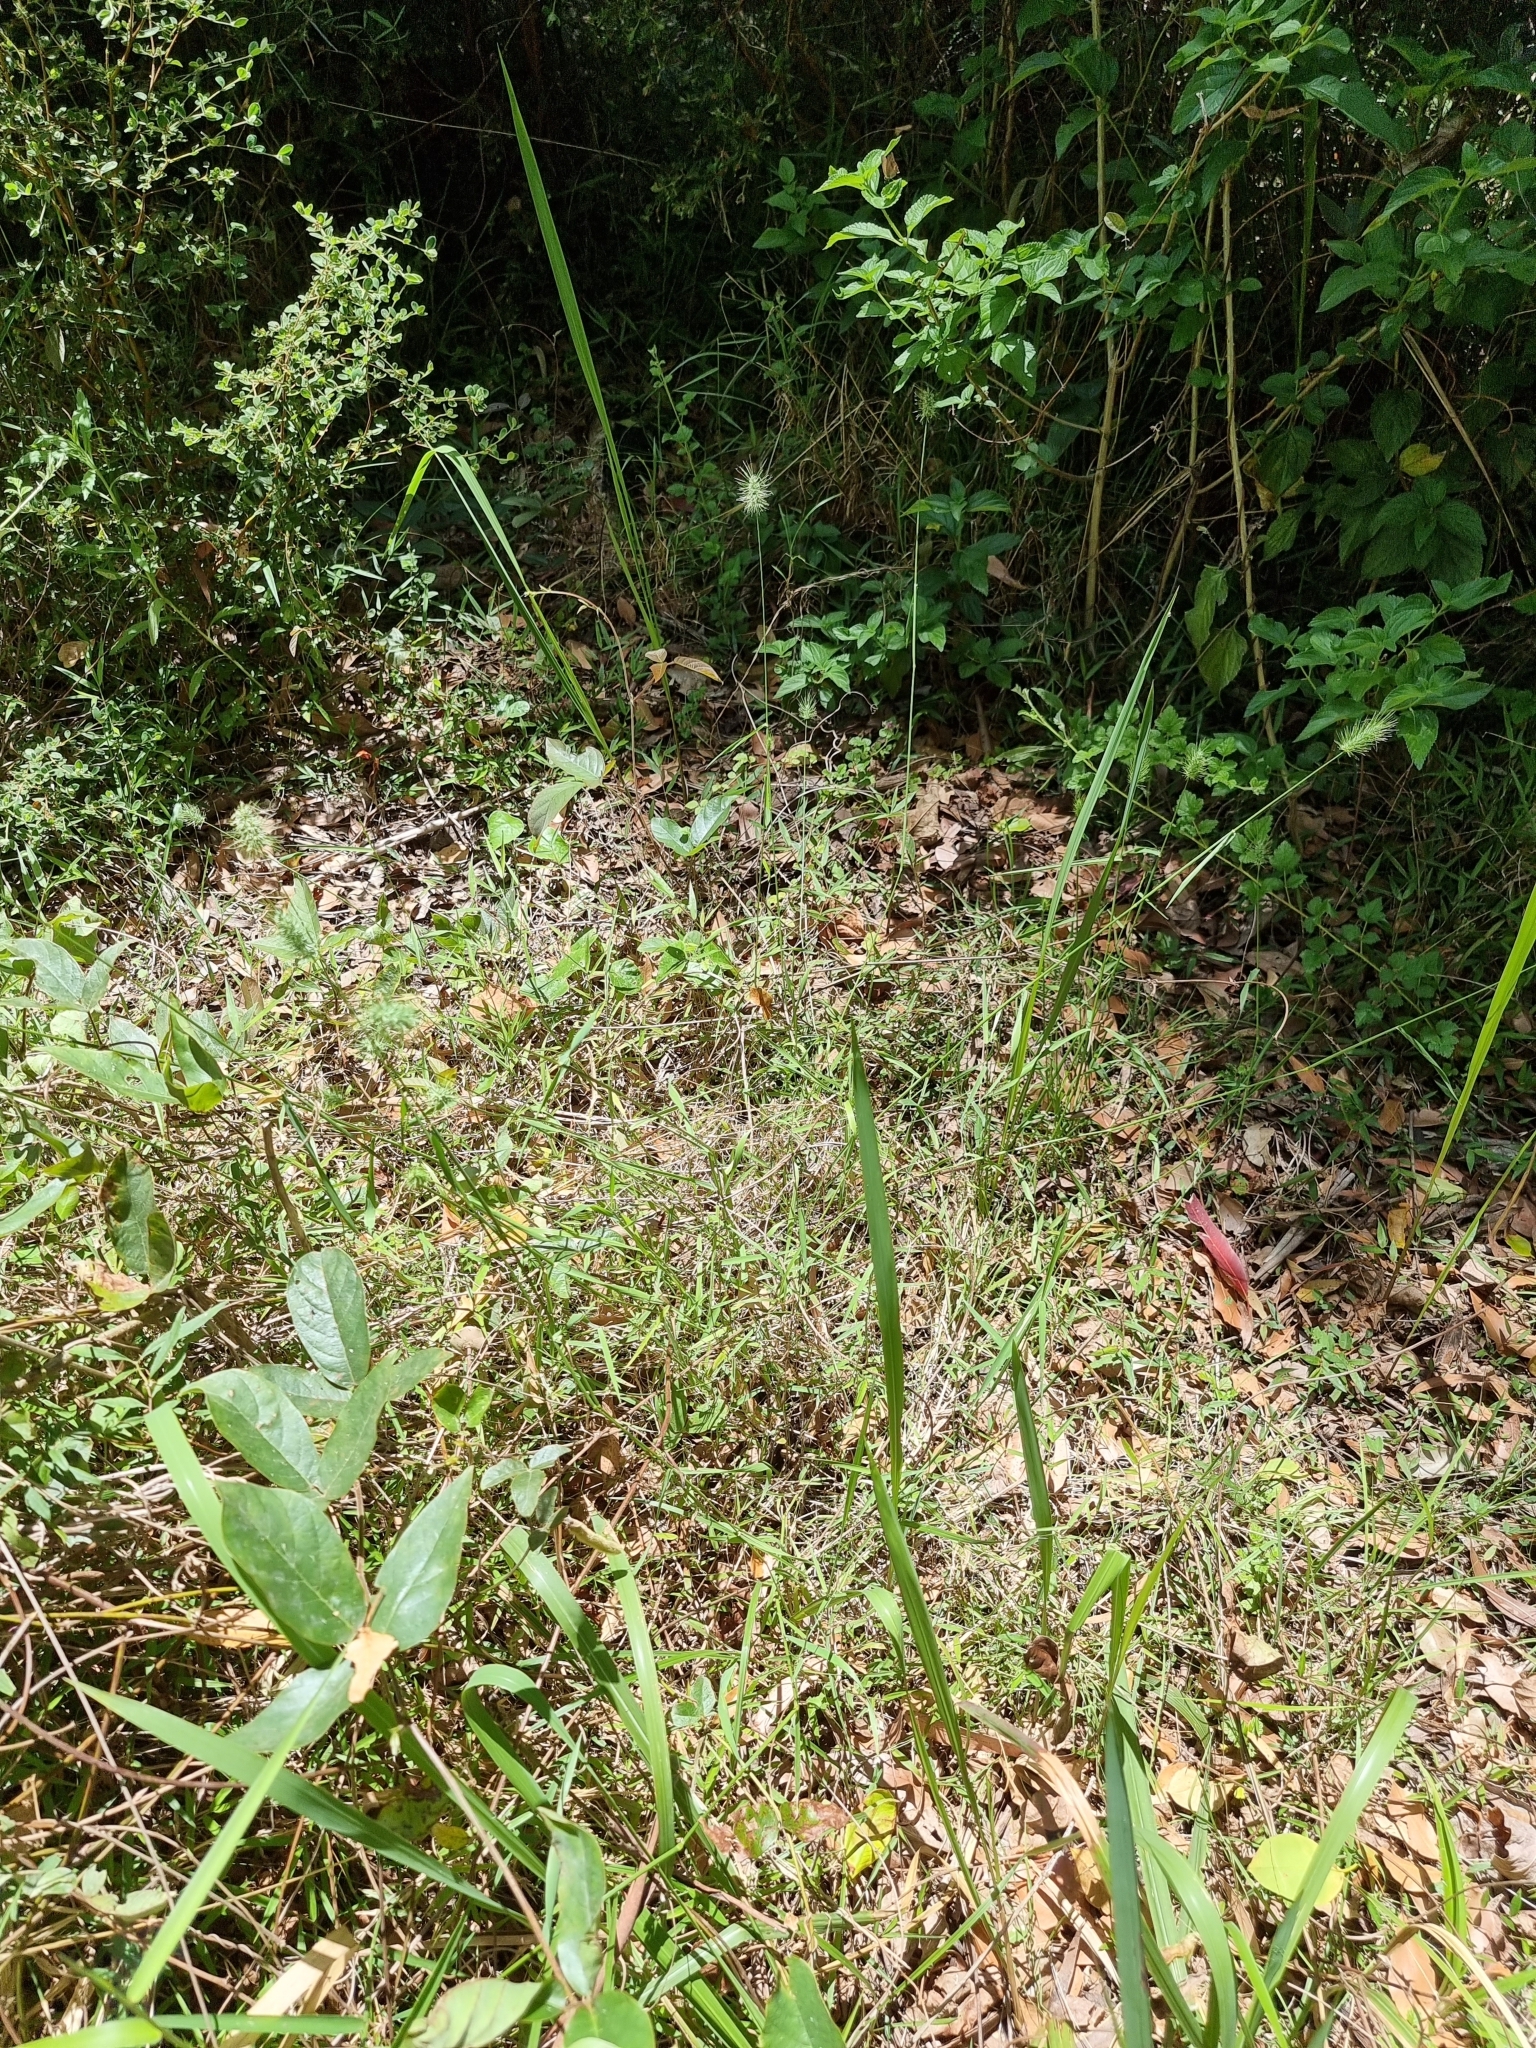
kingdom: Plantae
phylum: Tracheophyta
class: Liliopsida
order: Poales
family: Poaceae
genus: Echinopogon
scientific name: Echinopogon nutans
